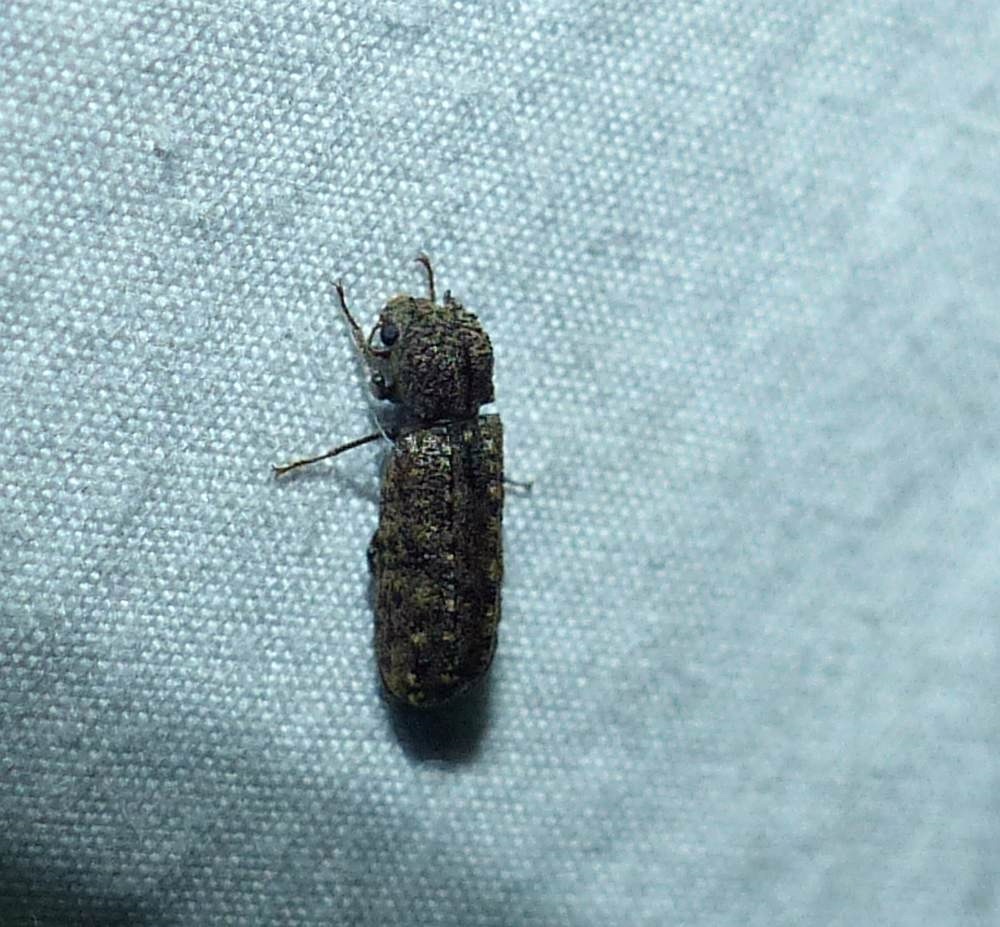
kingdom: Animalia
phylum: Arthropoda
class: Insecta
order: Coleoptera
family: Bostrichidae
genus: Lichenophanes
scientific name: Lichenophanes bicornis
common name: Two-horned powder-post beetle
